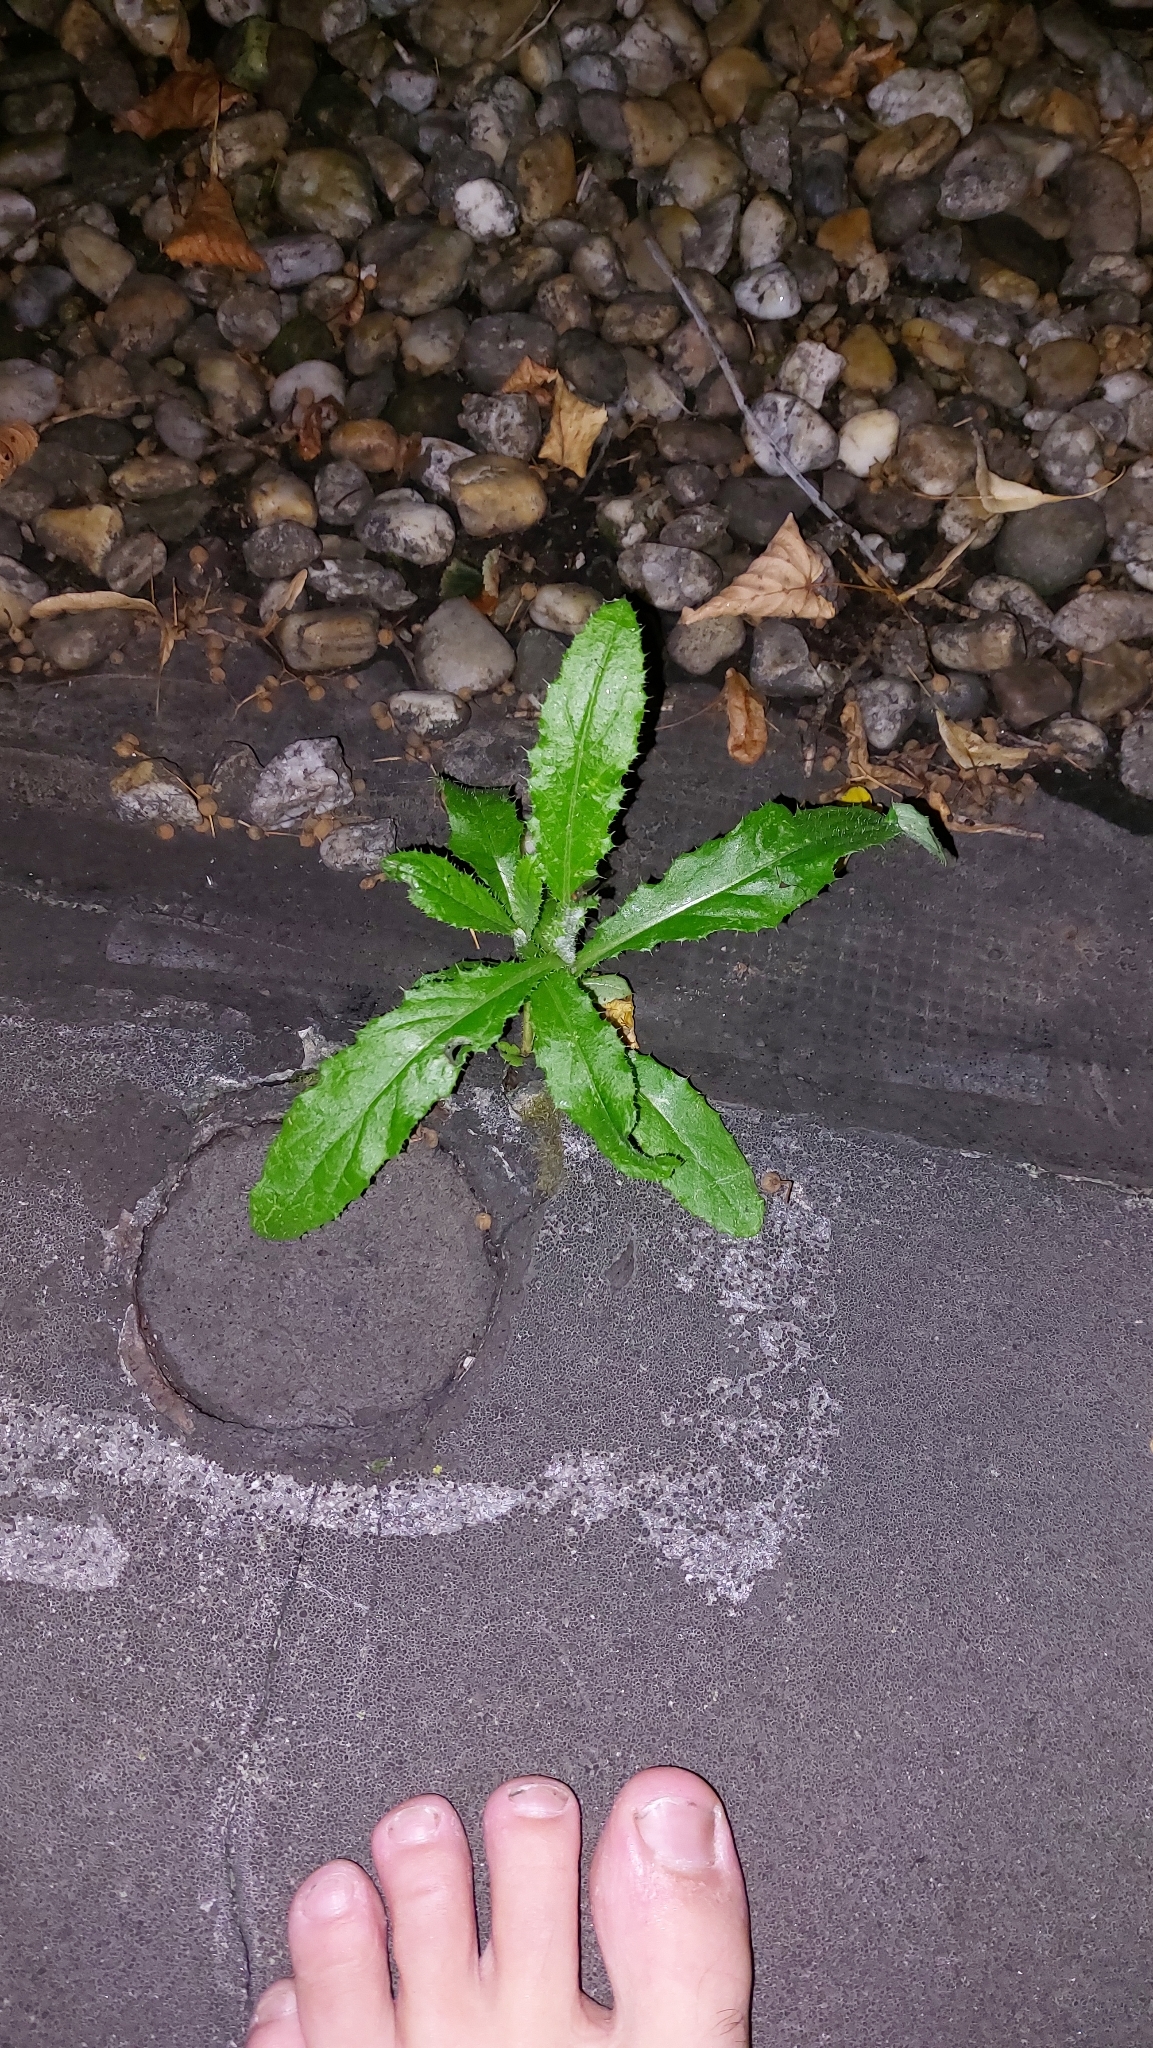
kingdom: Plantae
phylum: Tracheophyta
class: Magnoliopsida
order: Asterales
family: Asteraceae
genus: Cirsium
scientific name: Cirsium arvense
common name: Creeping thistle
